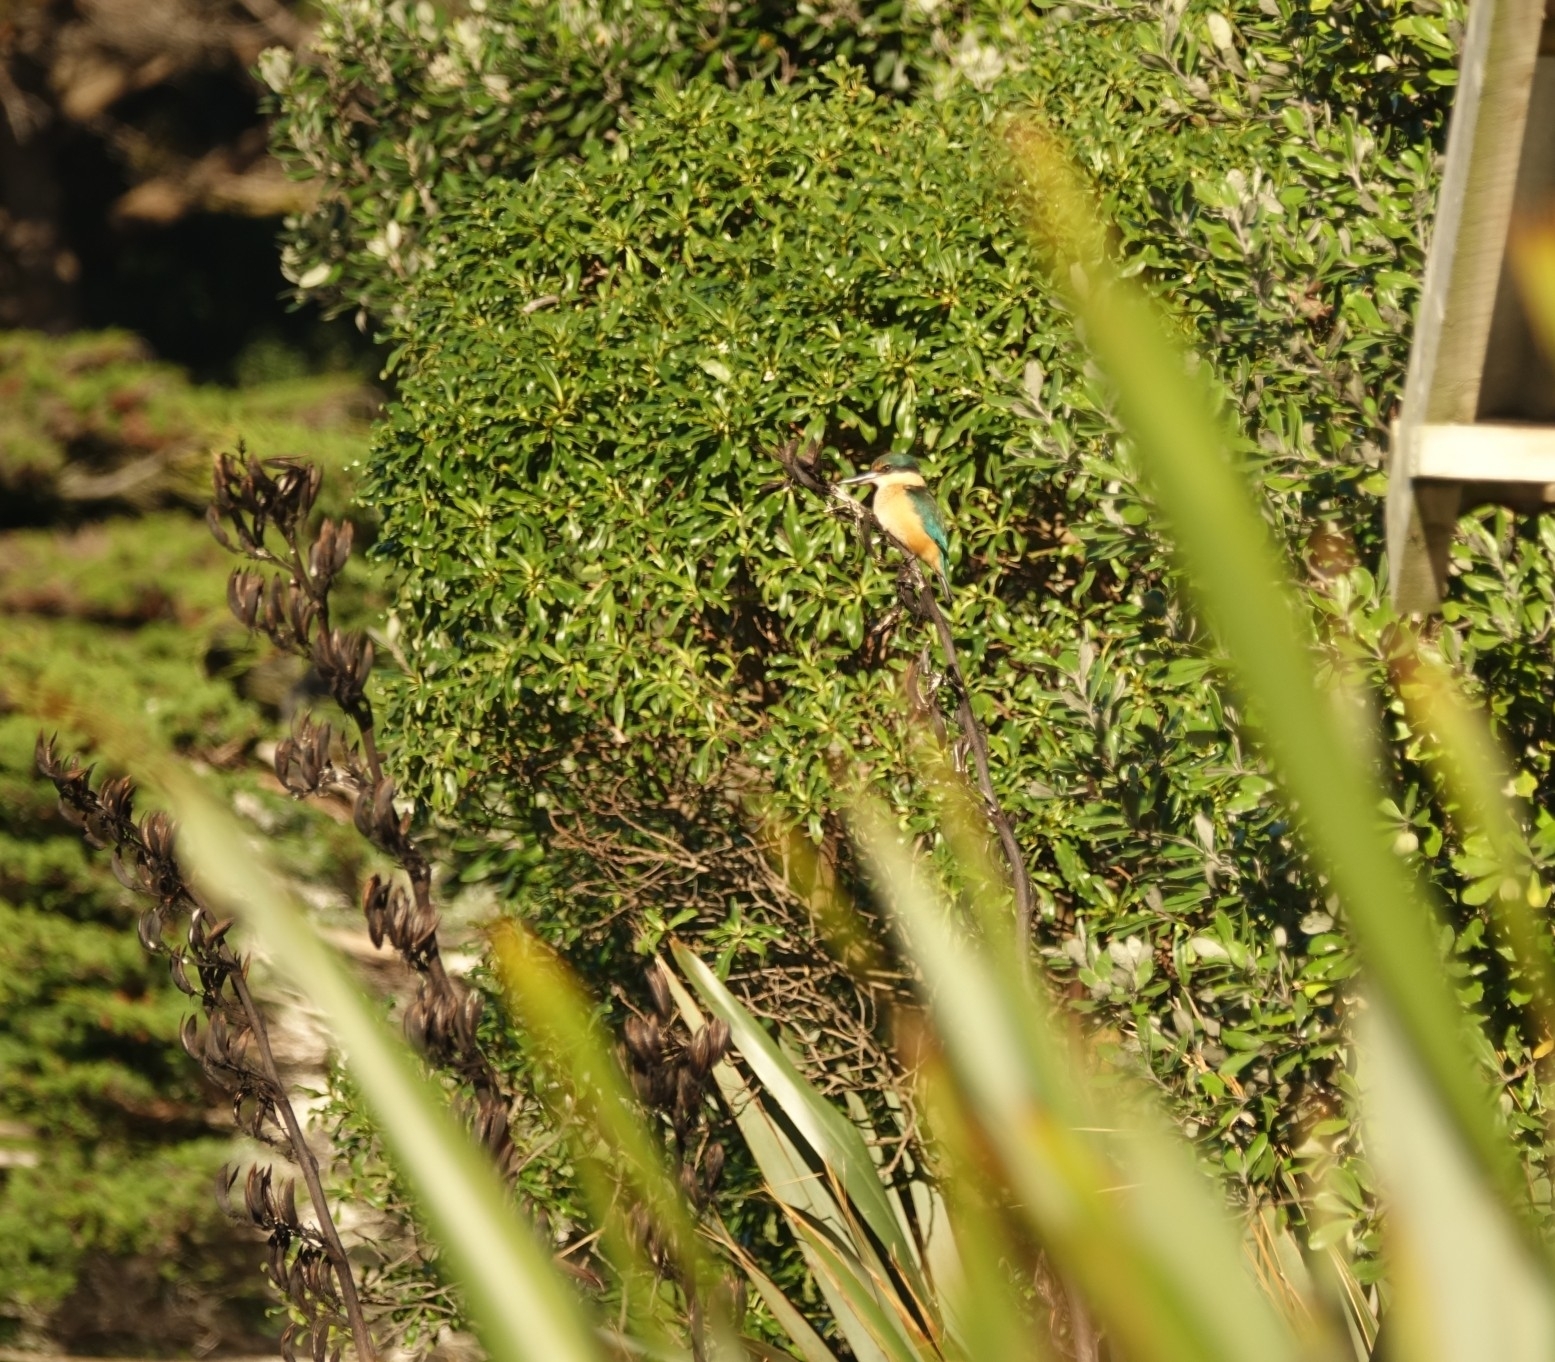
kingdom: Animalia
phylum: Chordata
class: Aves
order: Coraciiformes
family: Alcedinidae
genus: Todiramphus
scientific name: Todiramphus sanctus
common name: Sacred kingfisher
